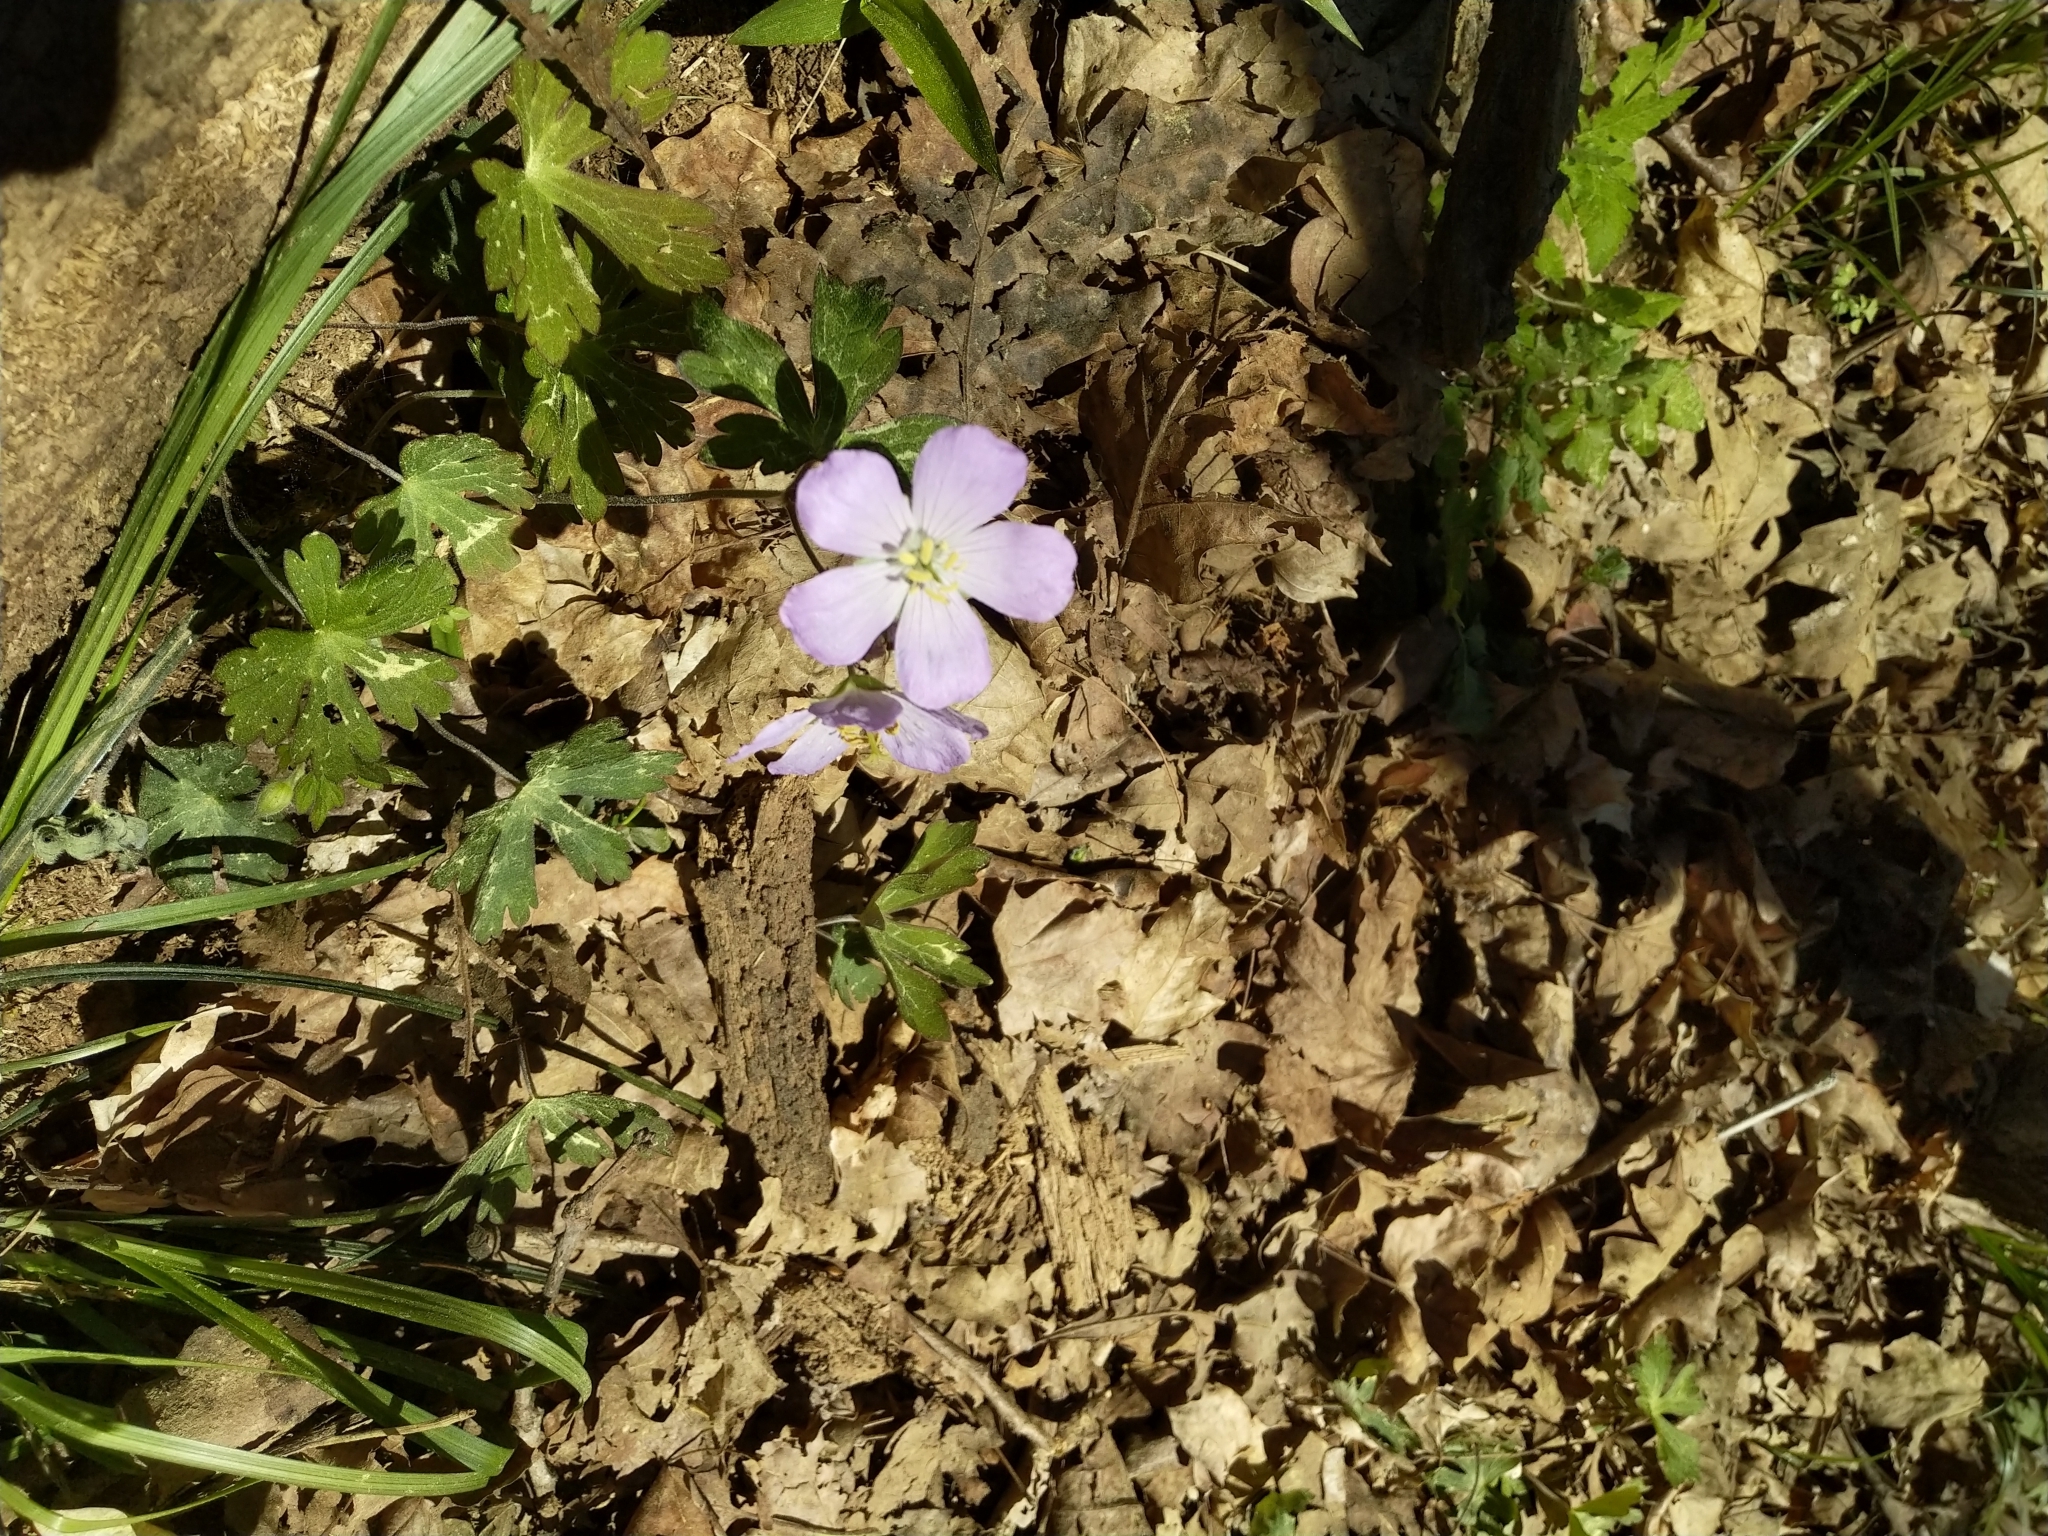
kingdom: Plantae
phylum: Tracheophyta
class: Magnoliopsida
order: Geraniales
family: Geraniaceae
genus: Geranium
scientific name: Geranium maculatum
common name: Spotted geranium
